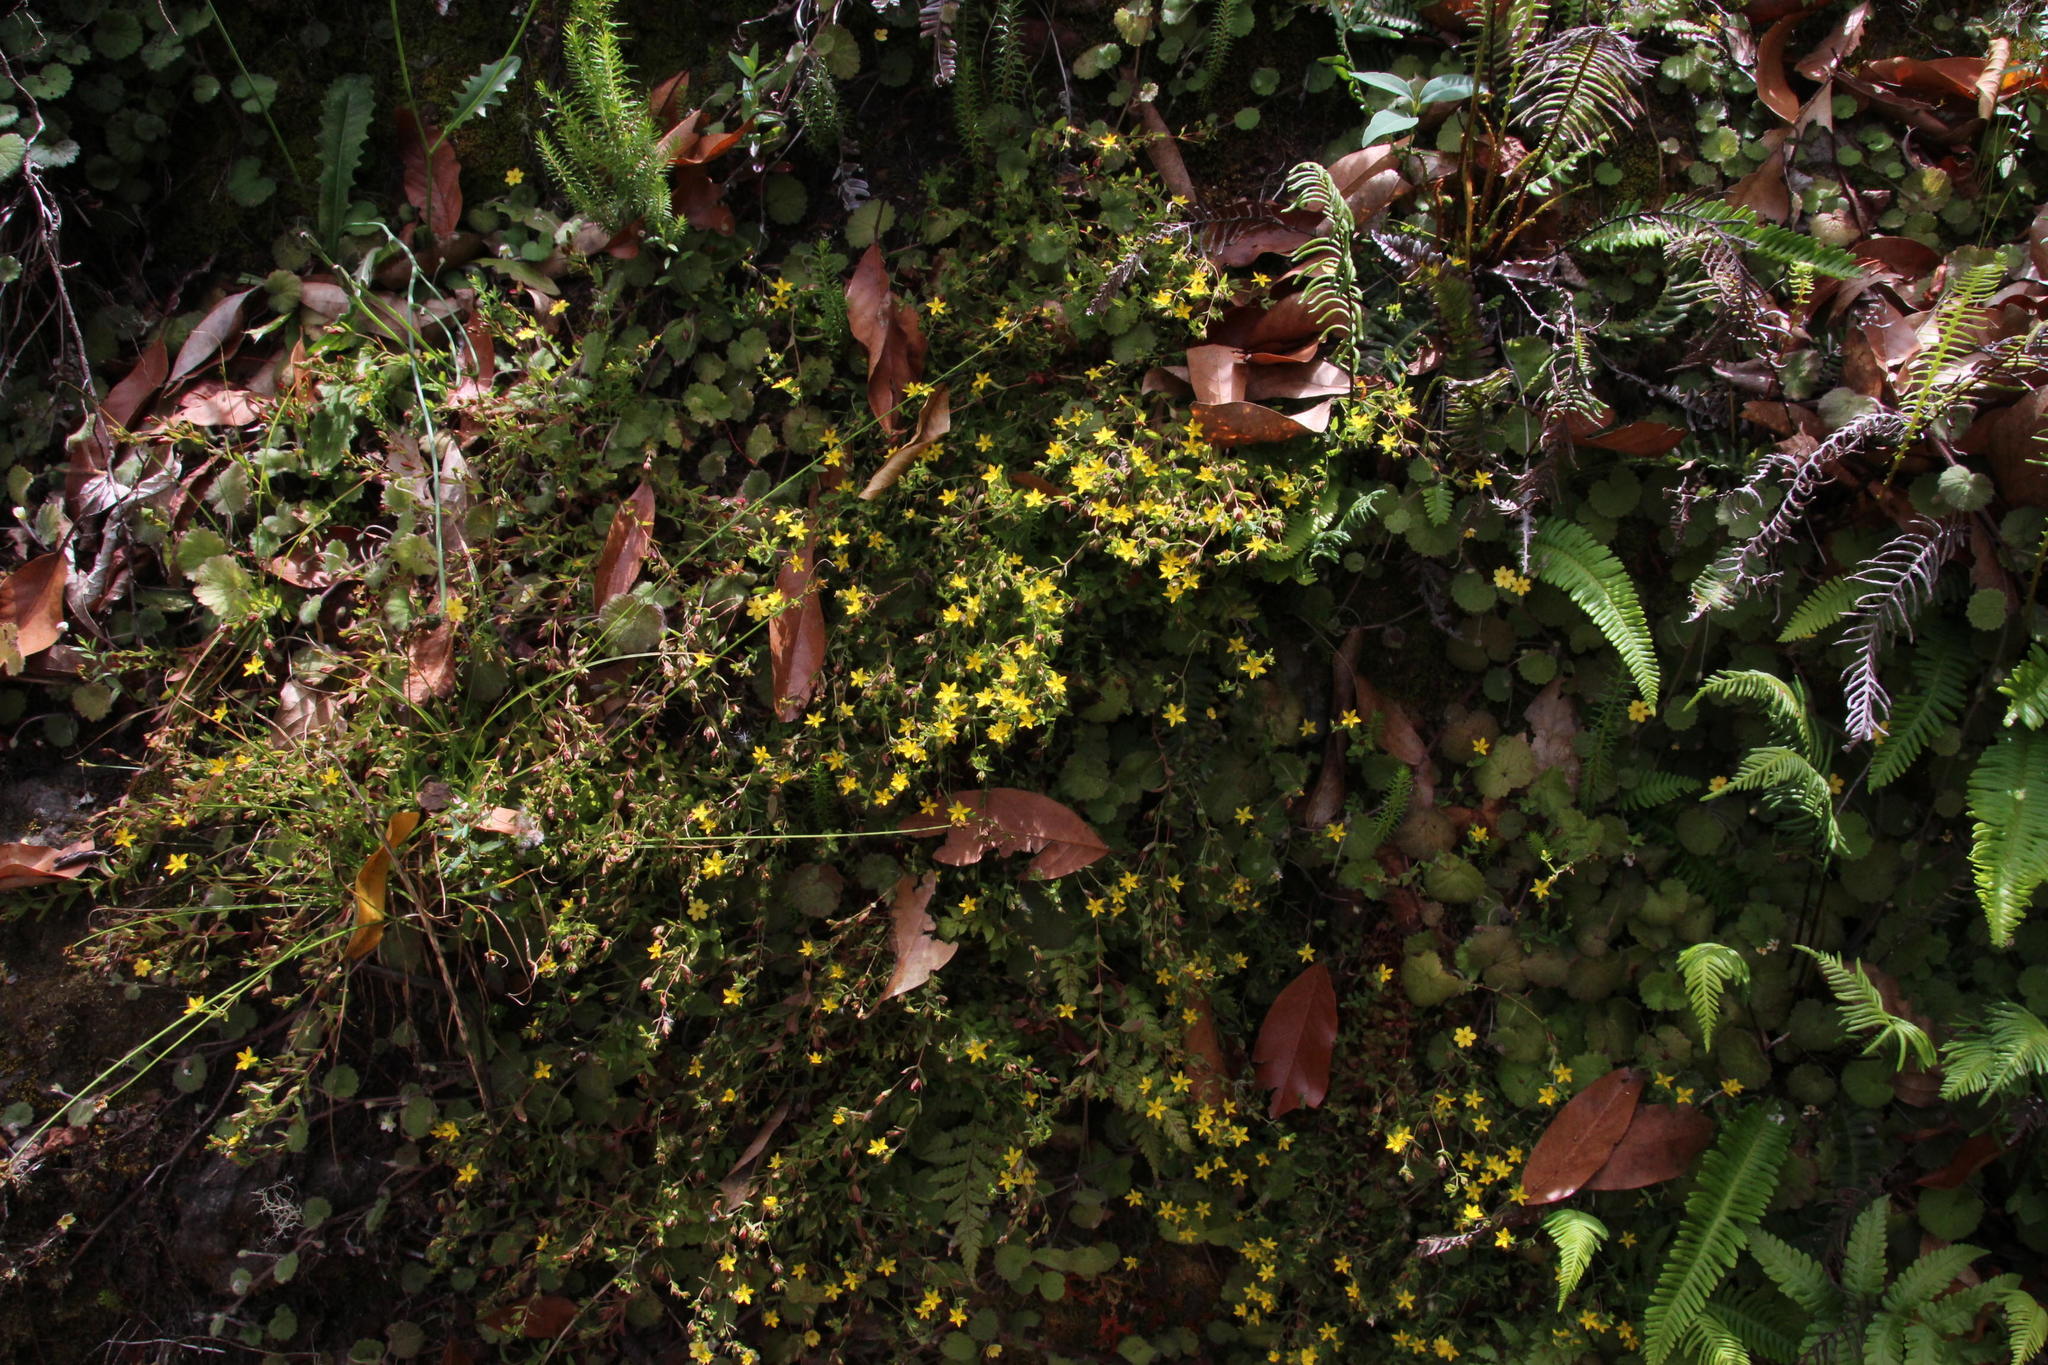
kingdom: Plantae
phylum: Tracheophyta
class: Magnoliopsida
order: Malpighiales
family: Hypericaceae
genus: Hypericum
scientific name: Hypericum humifusum
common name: Trailing st. john's-wort
